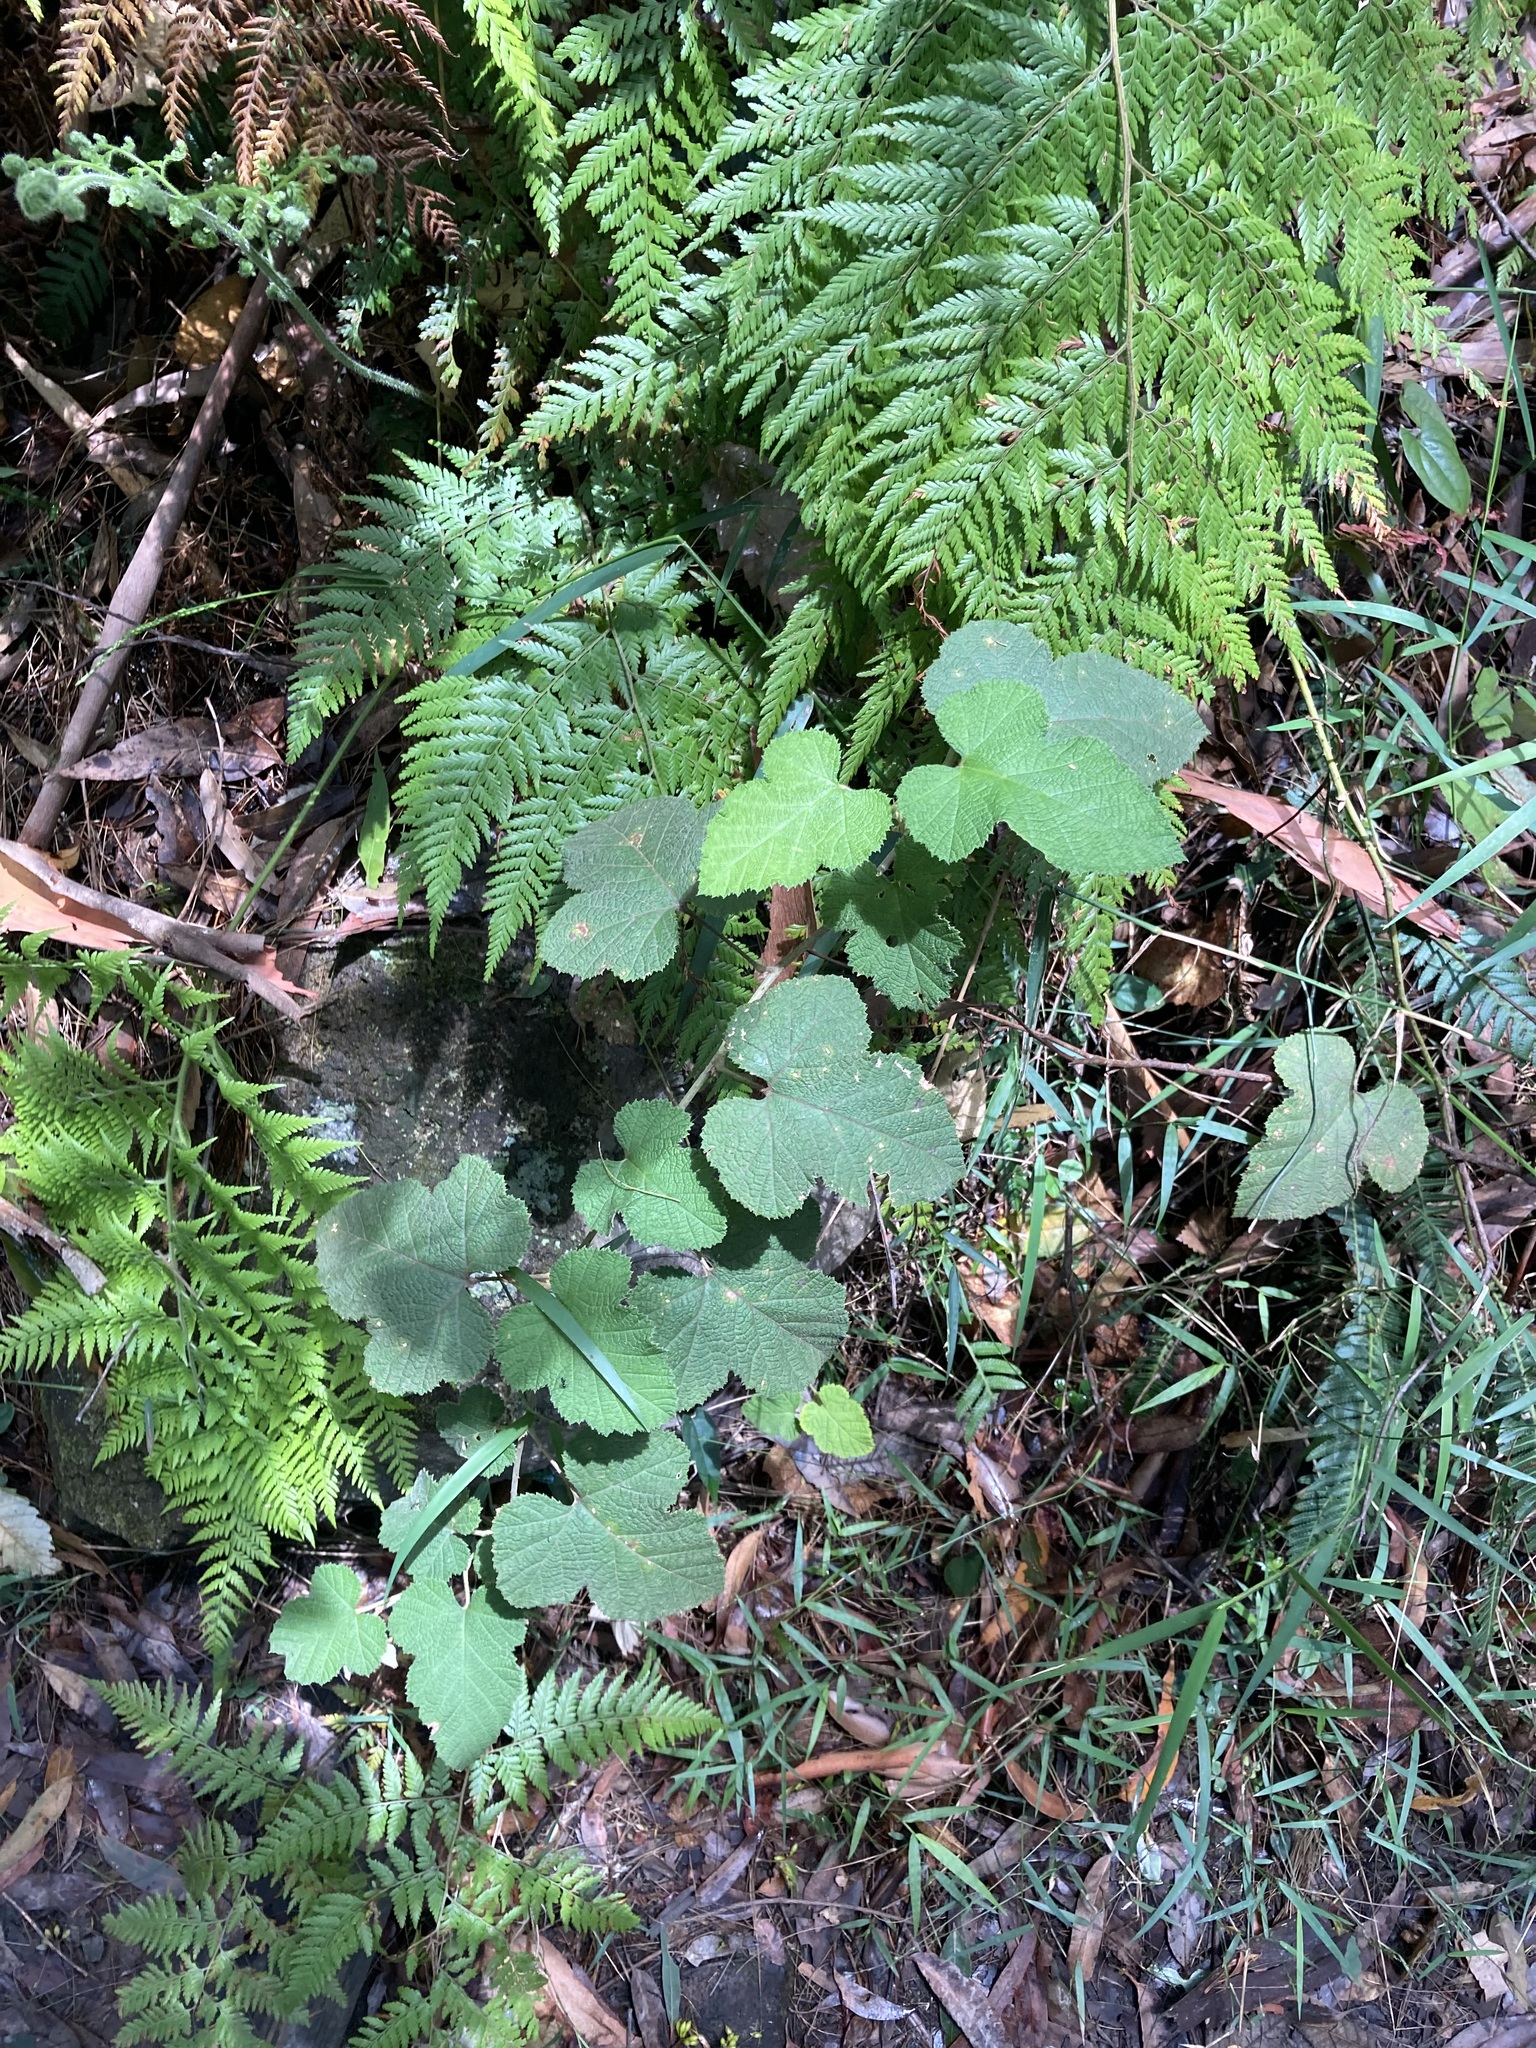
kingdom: Plantae
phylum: Tracheophyta
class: Magnoliopsida
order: Rosales
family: Rosaceae
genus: Rubus
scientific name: Rubus moluccanus
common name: Wild raspberry
